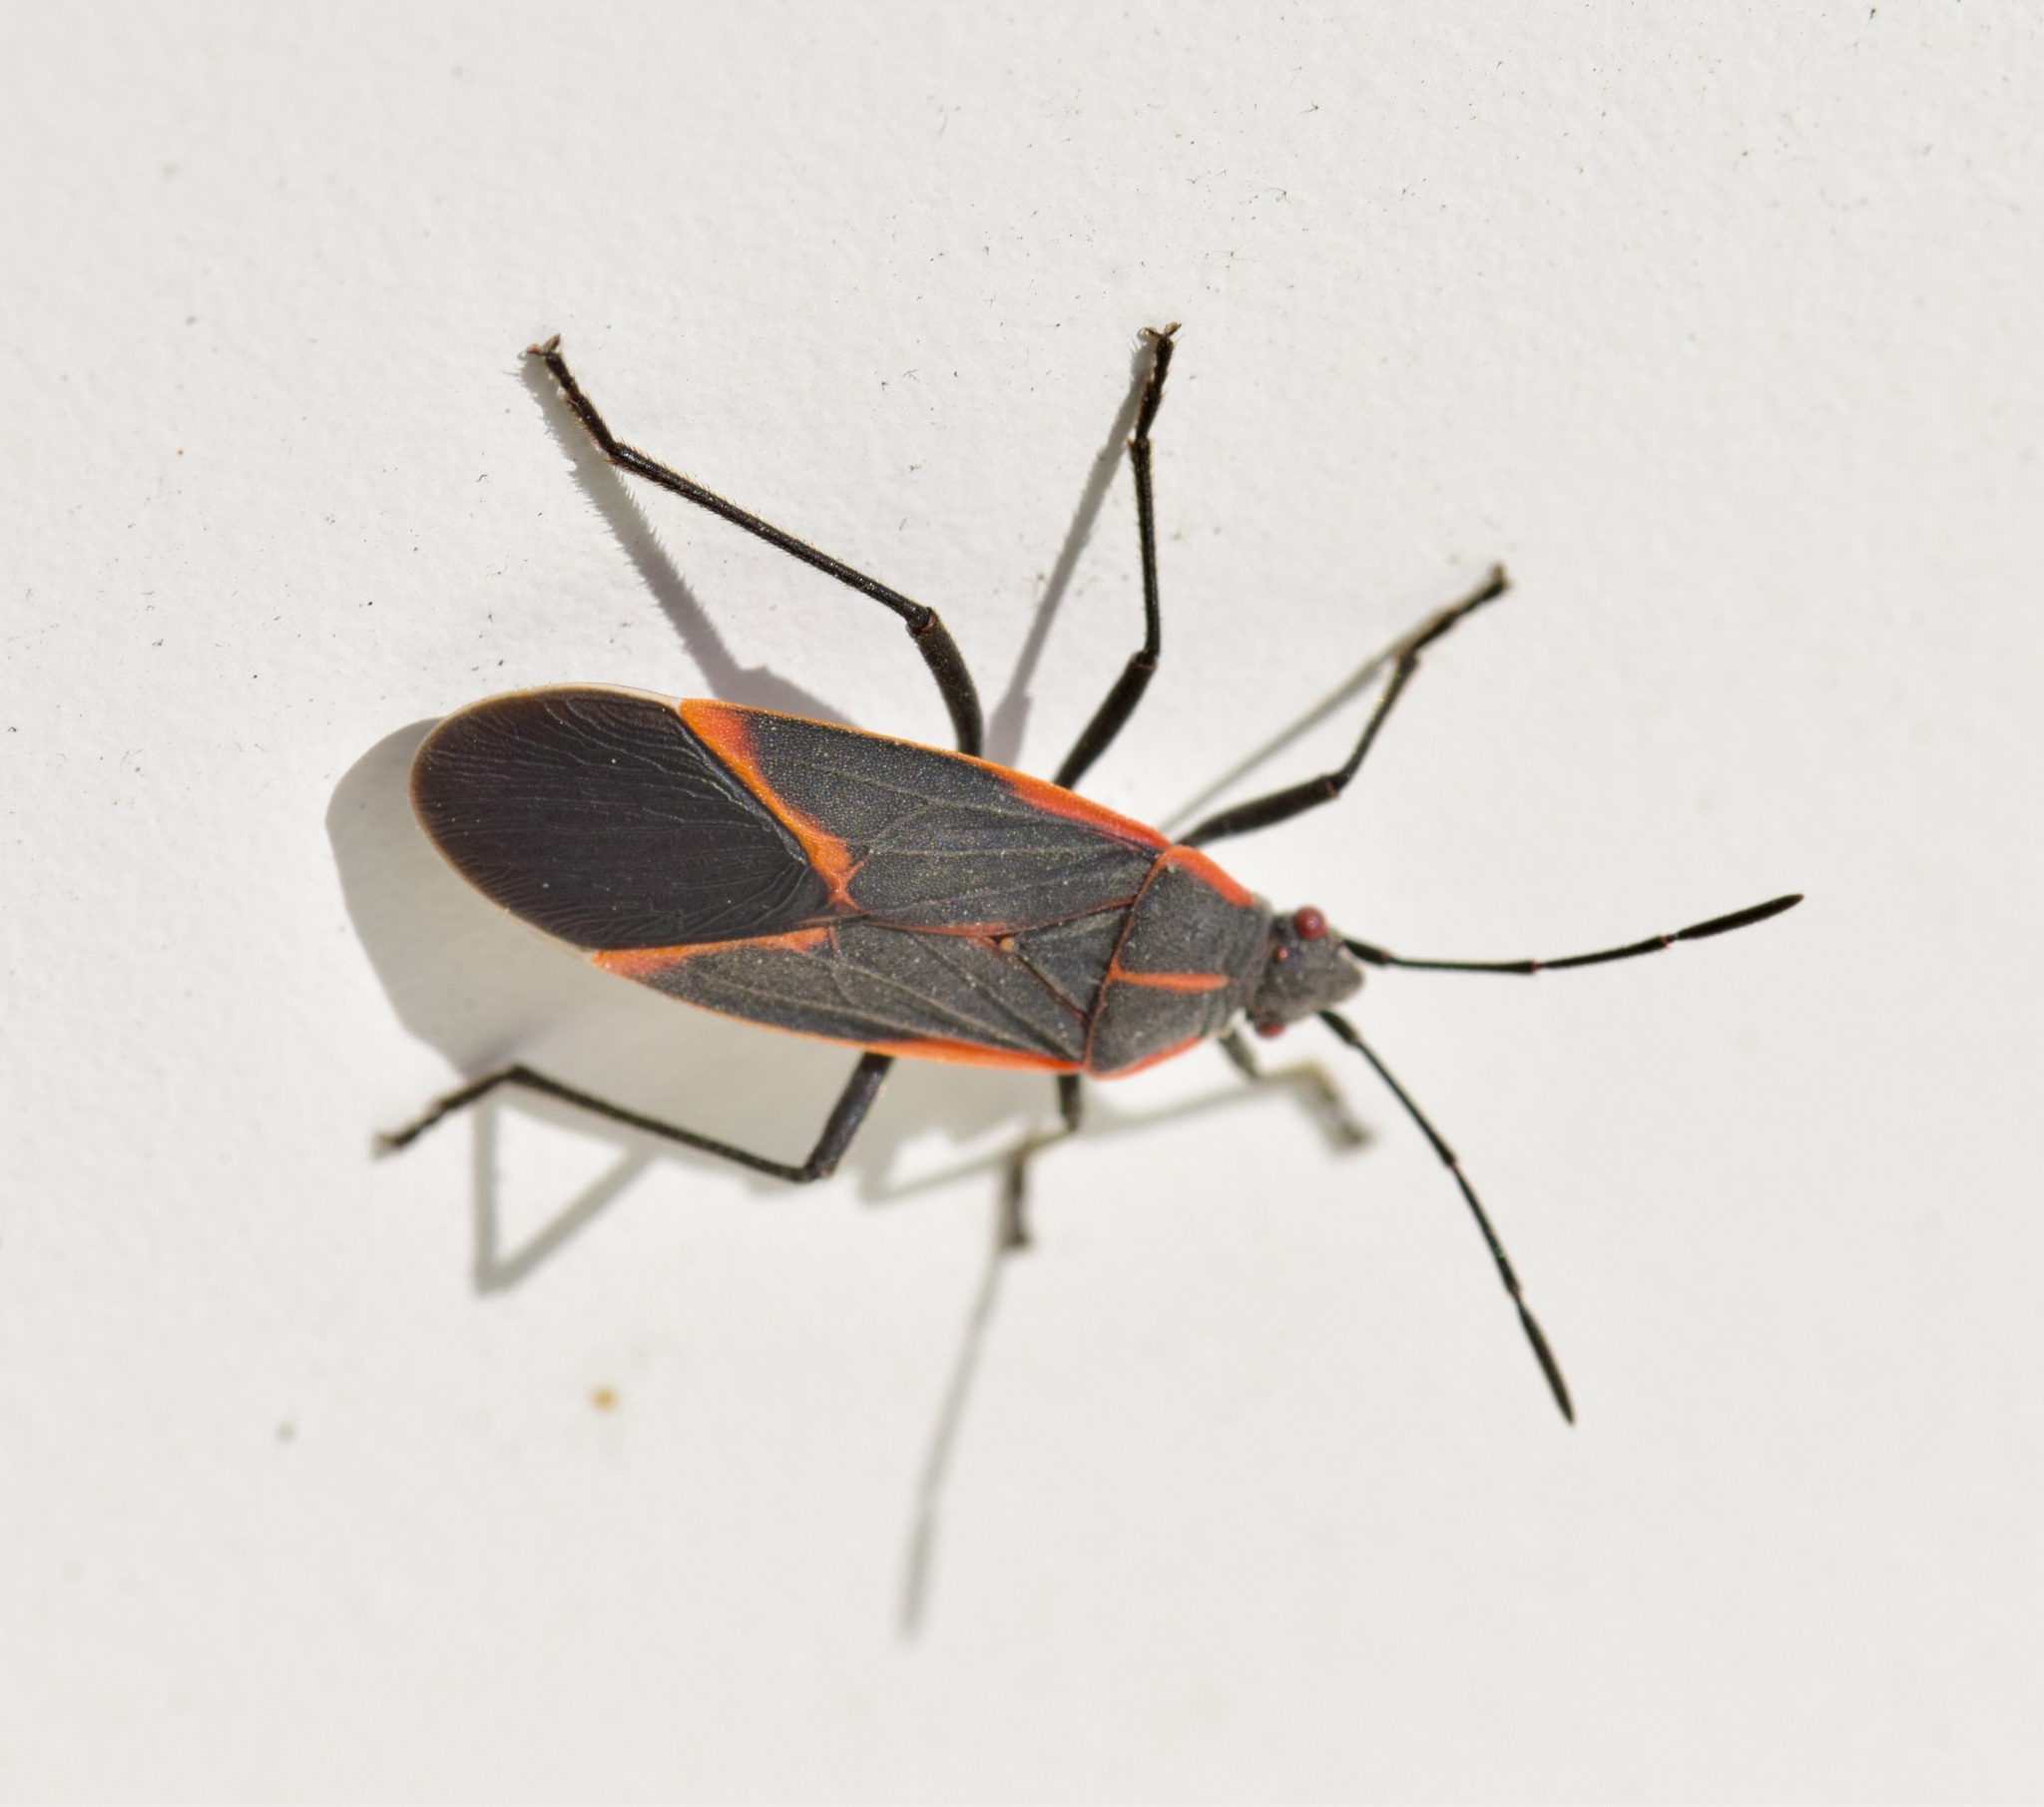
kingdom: Animalia
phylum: Arthropoda
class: Insecta
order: Hemiptera
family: Rhopalidae
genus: Boisea
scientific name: Boisea trivittata
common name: Boxelder bug
